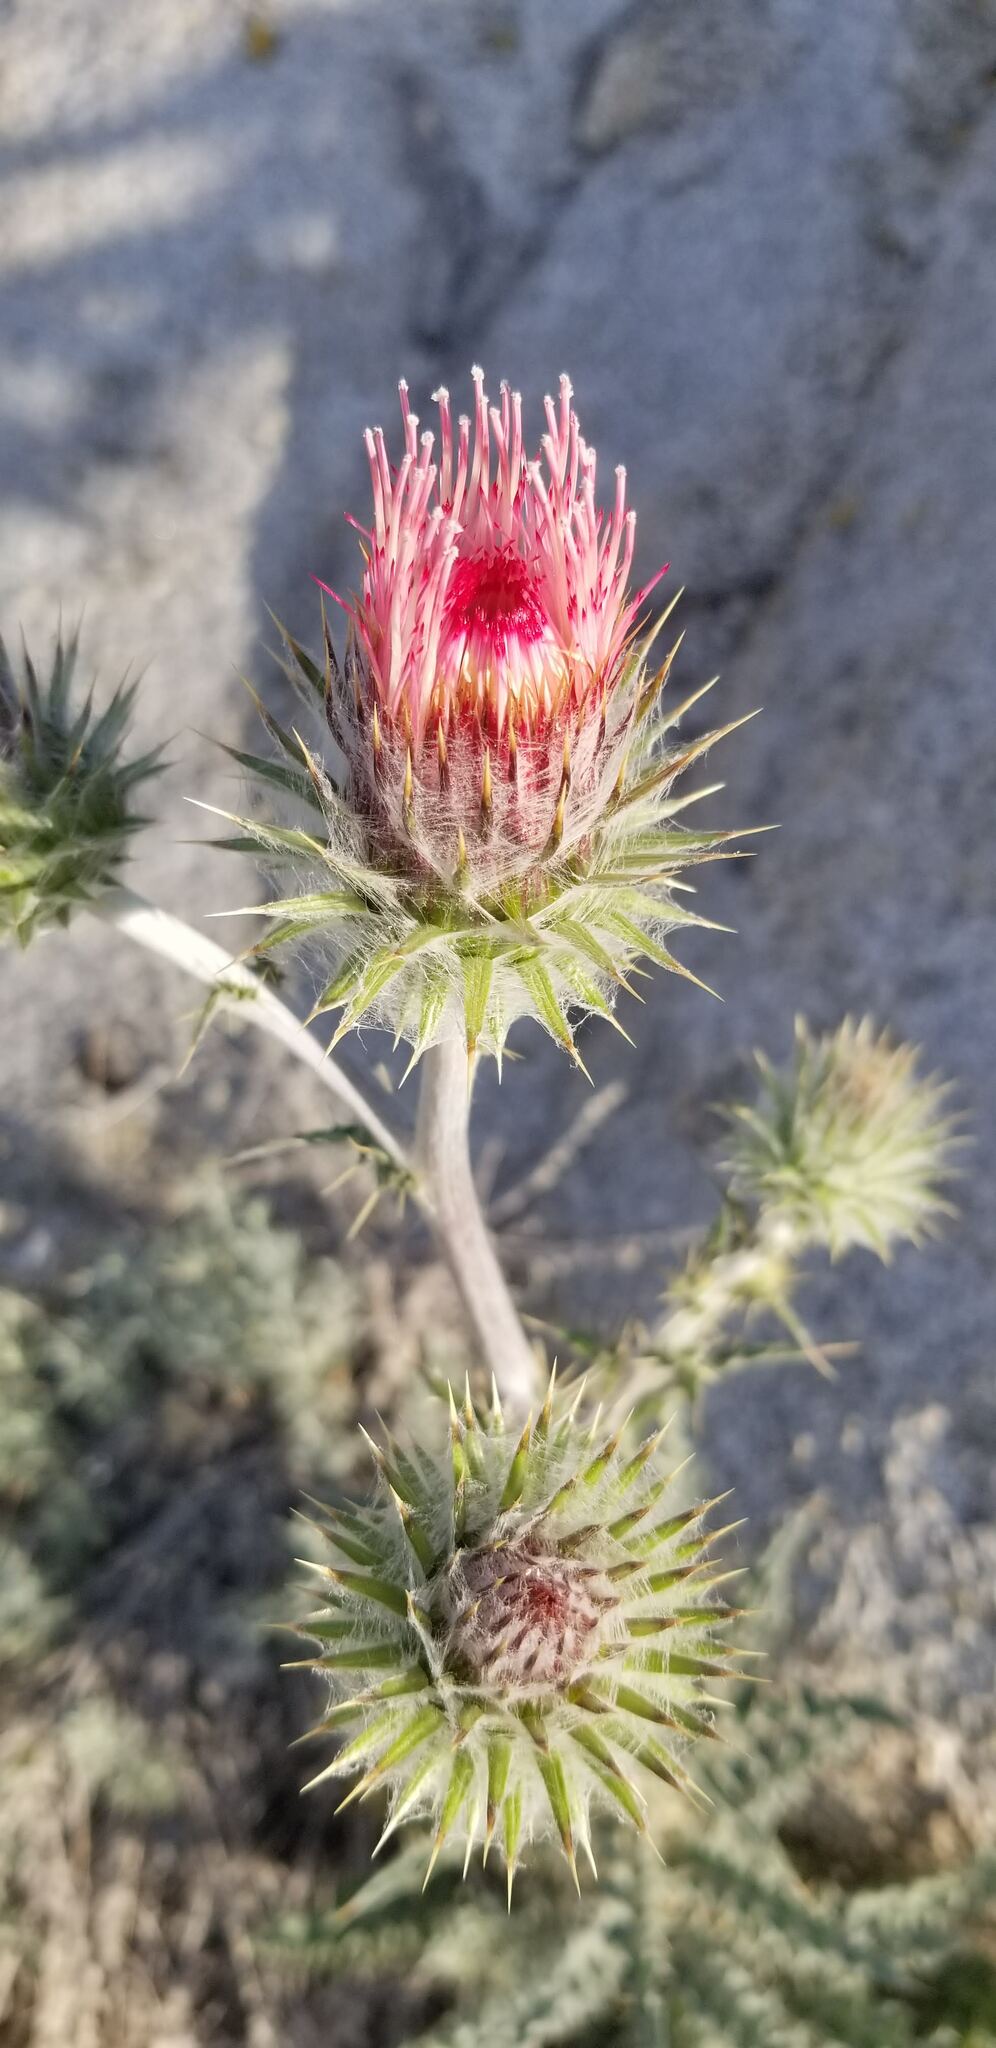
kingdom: Plantae
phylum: Tracheophyta
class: Magnoliopsida
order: Asterales
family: Asteraceae
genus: Cirsium
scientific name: Cirsium occidentale
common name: Western thistle
